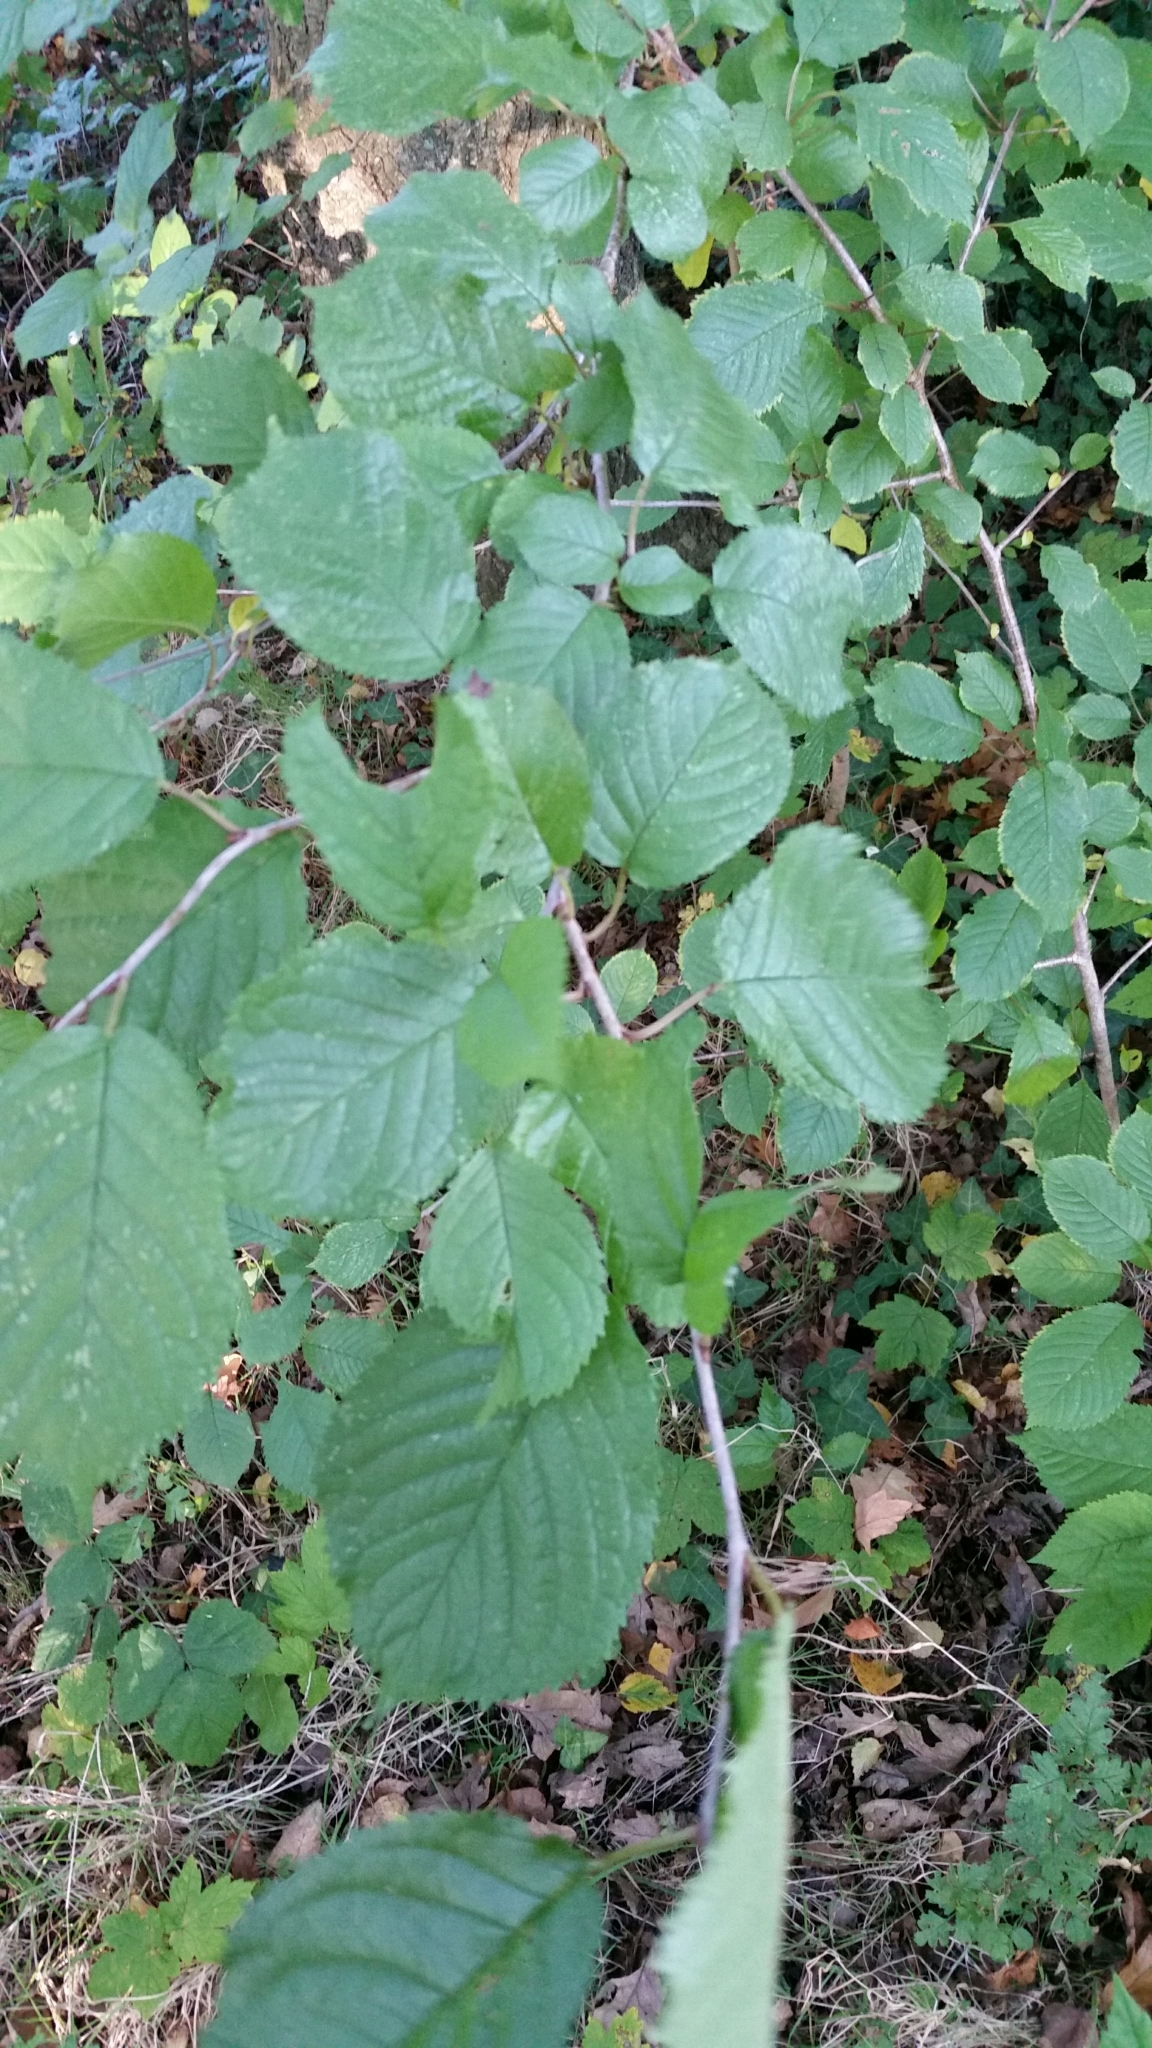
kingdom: Plantae
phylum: Tracheophyta
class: Magnoliopsida
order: Rosales
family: Rosaceae
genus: Prunus
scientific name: Prunus avium
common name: Sweet cherry
